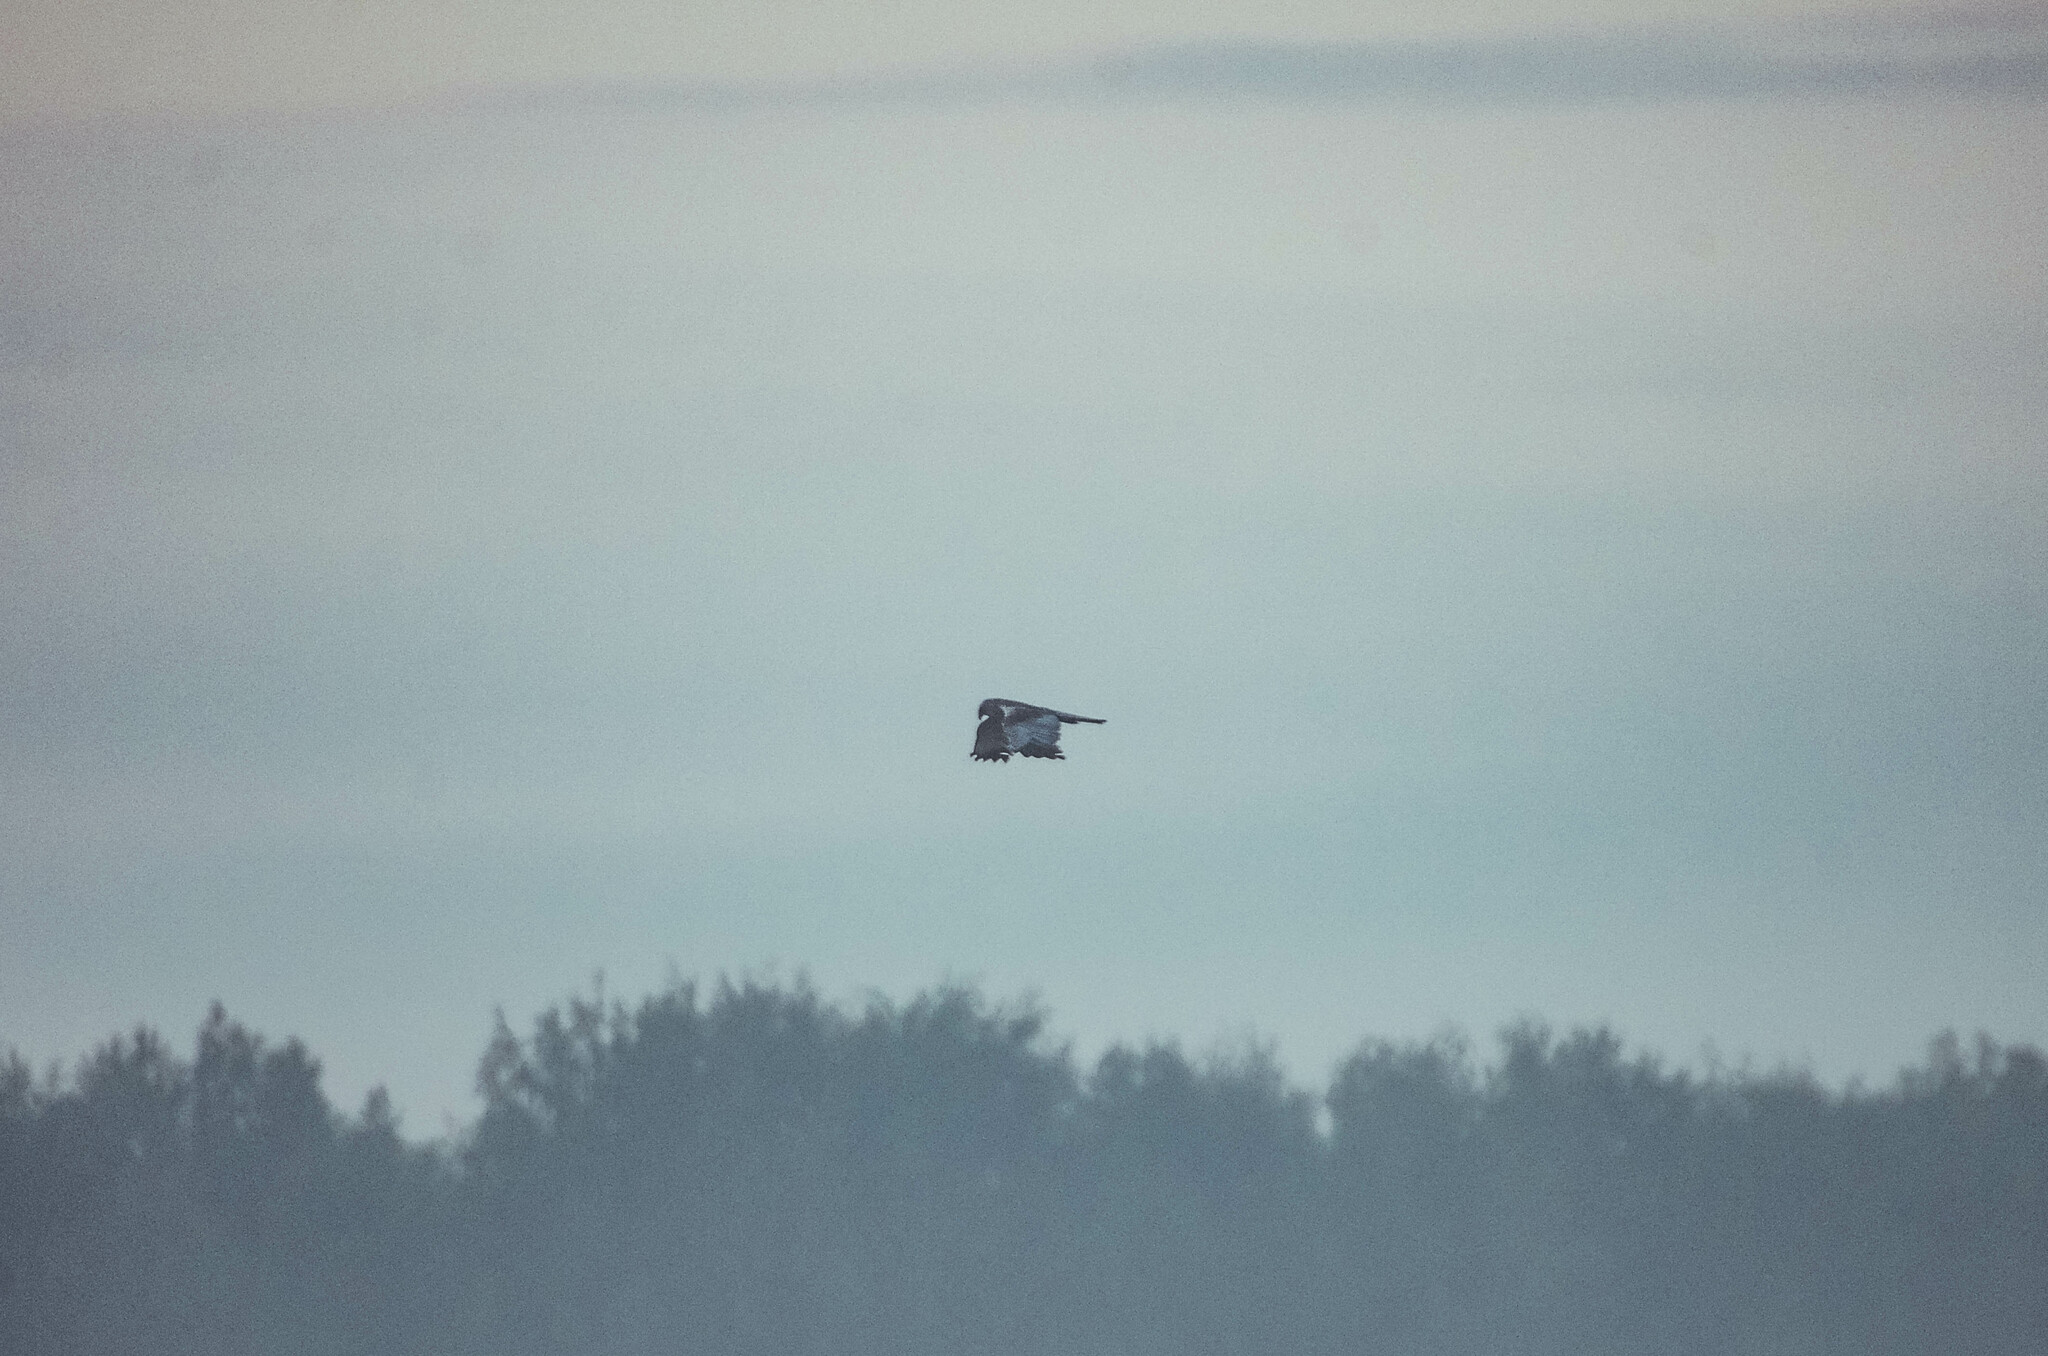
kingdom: Animalia
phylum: Chordata
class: Aves
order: Accipitriformes
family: Accipitridae
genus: Circus
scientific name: Circus aeruginosus
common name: Western marsh harrier
